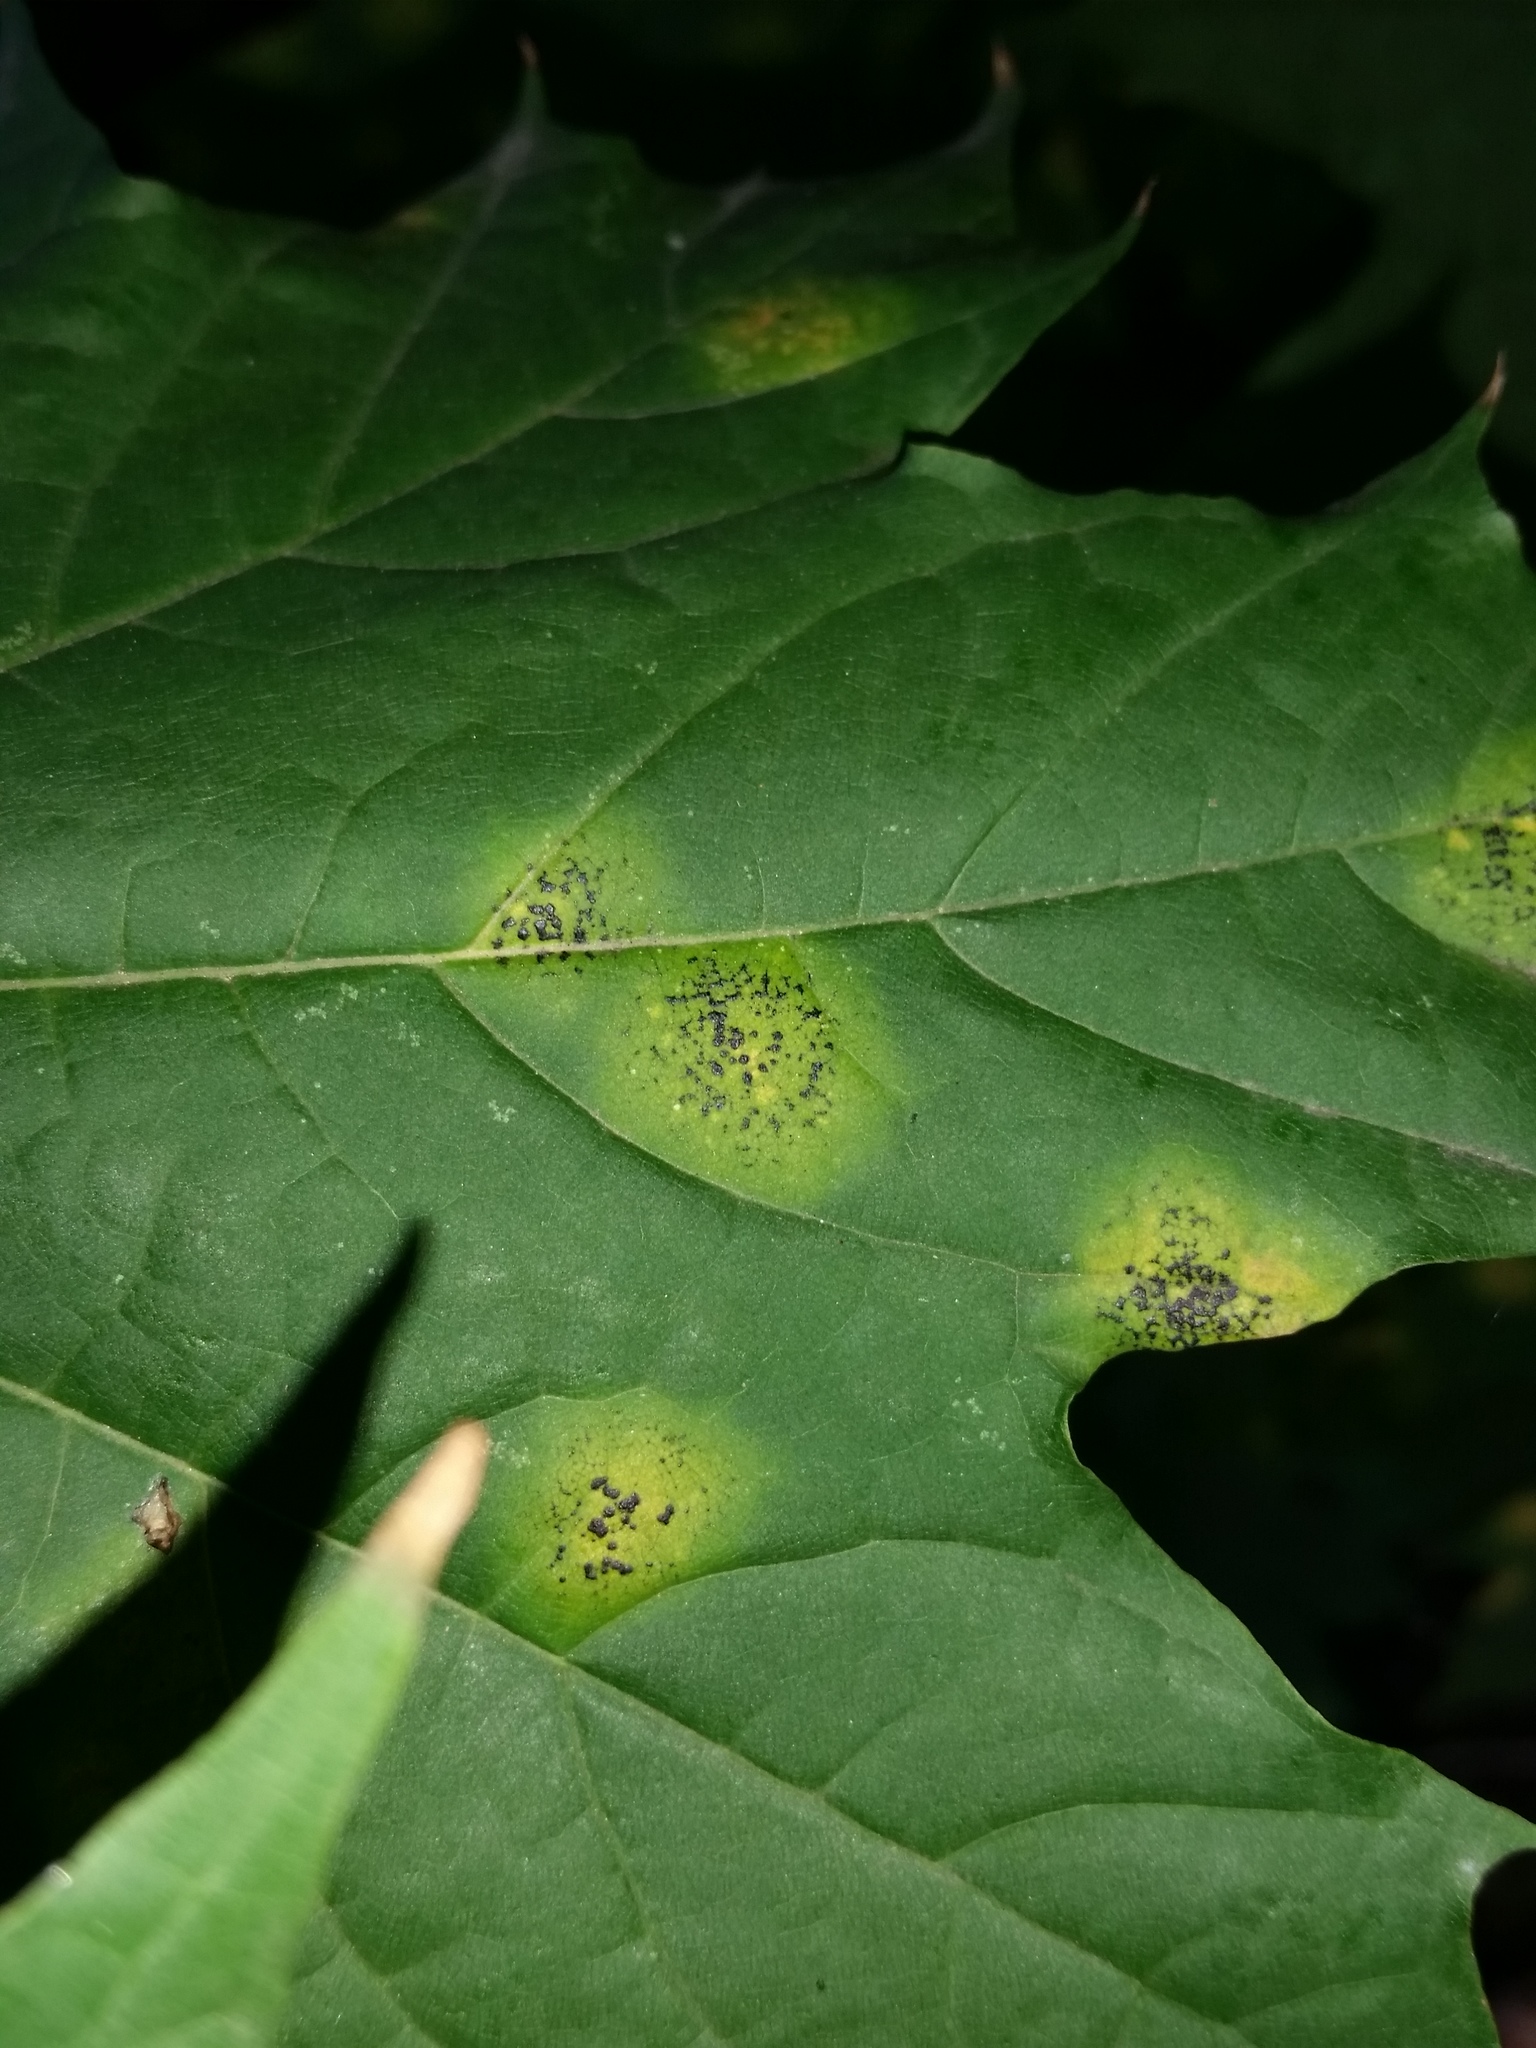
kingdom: Fungi
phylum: Ascomycota
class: Leotiomycetes
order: Rhytismatales
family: Rhytismataceae
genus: Rhytisma
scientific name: Rhytisma acerinum
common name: European tar spot
